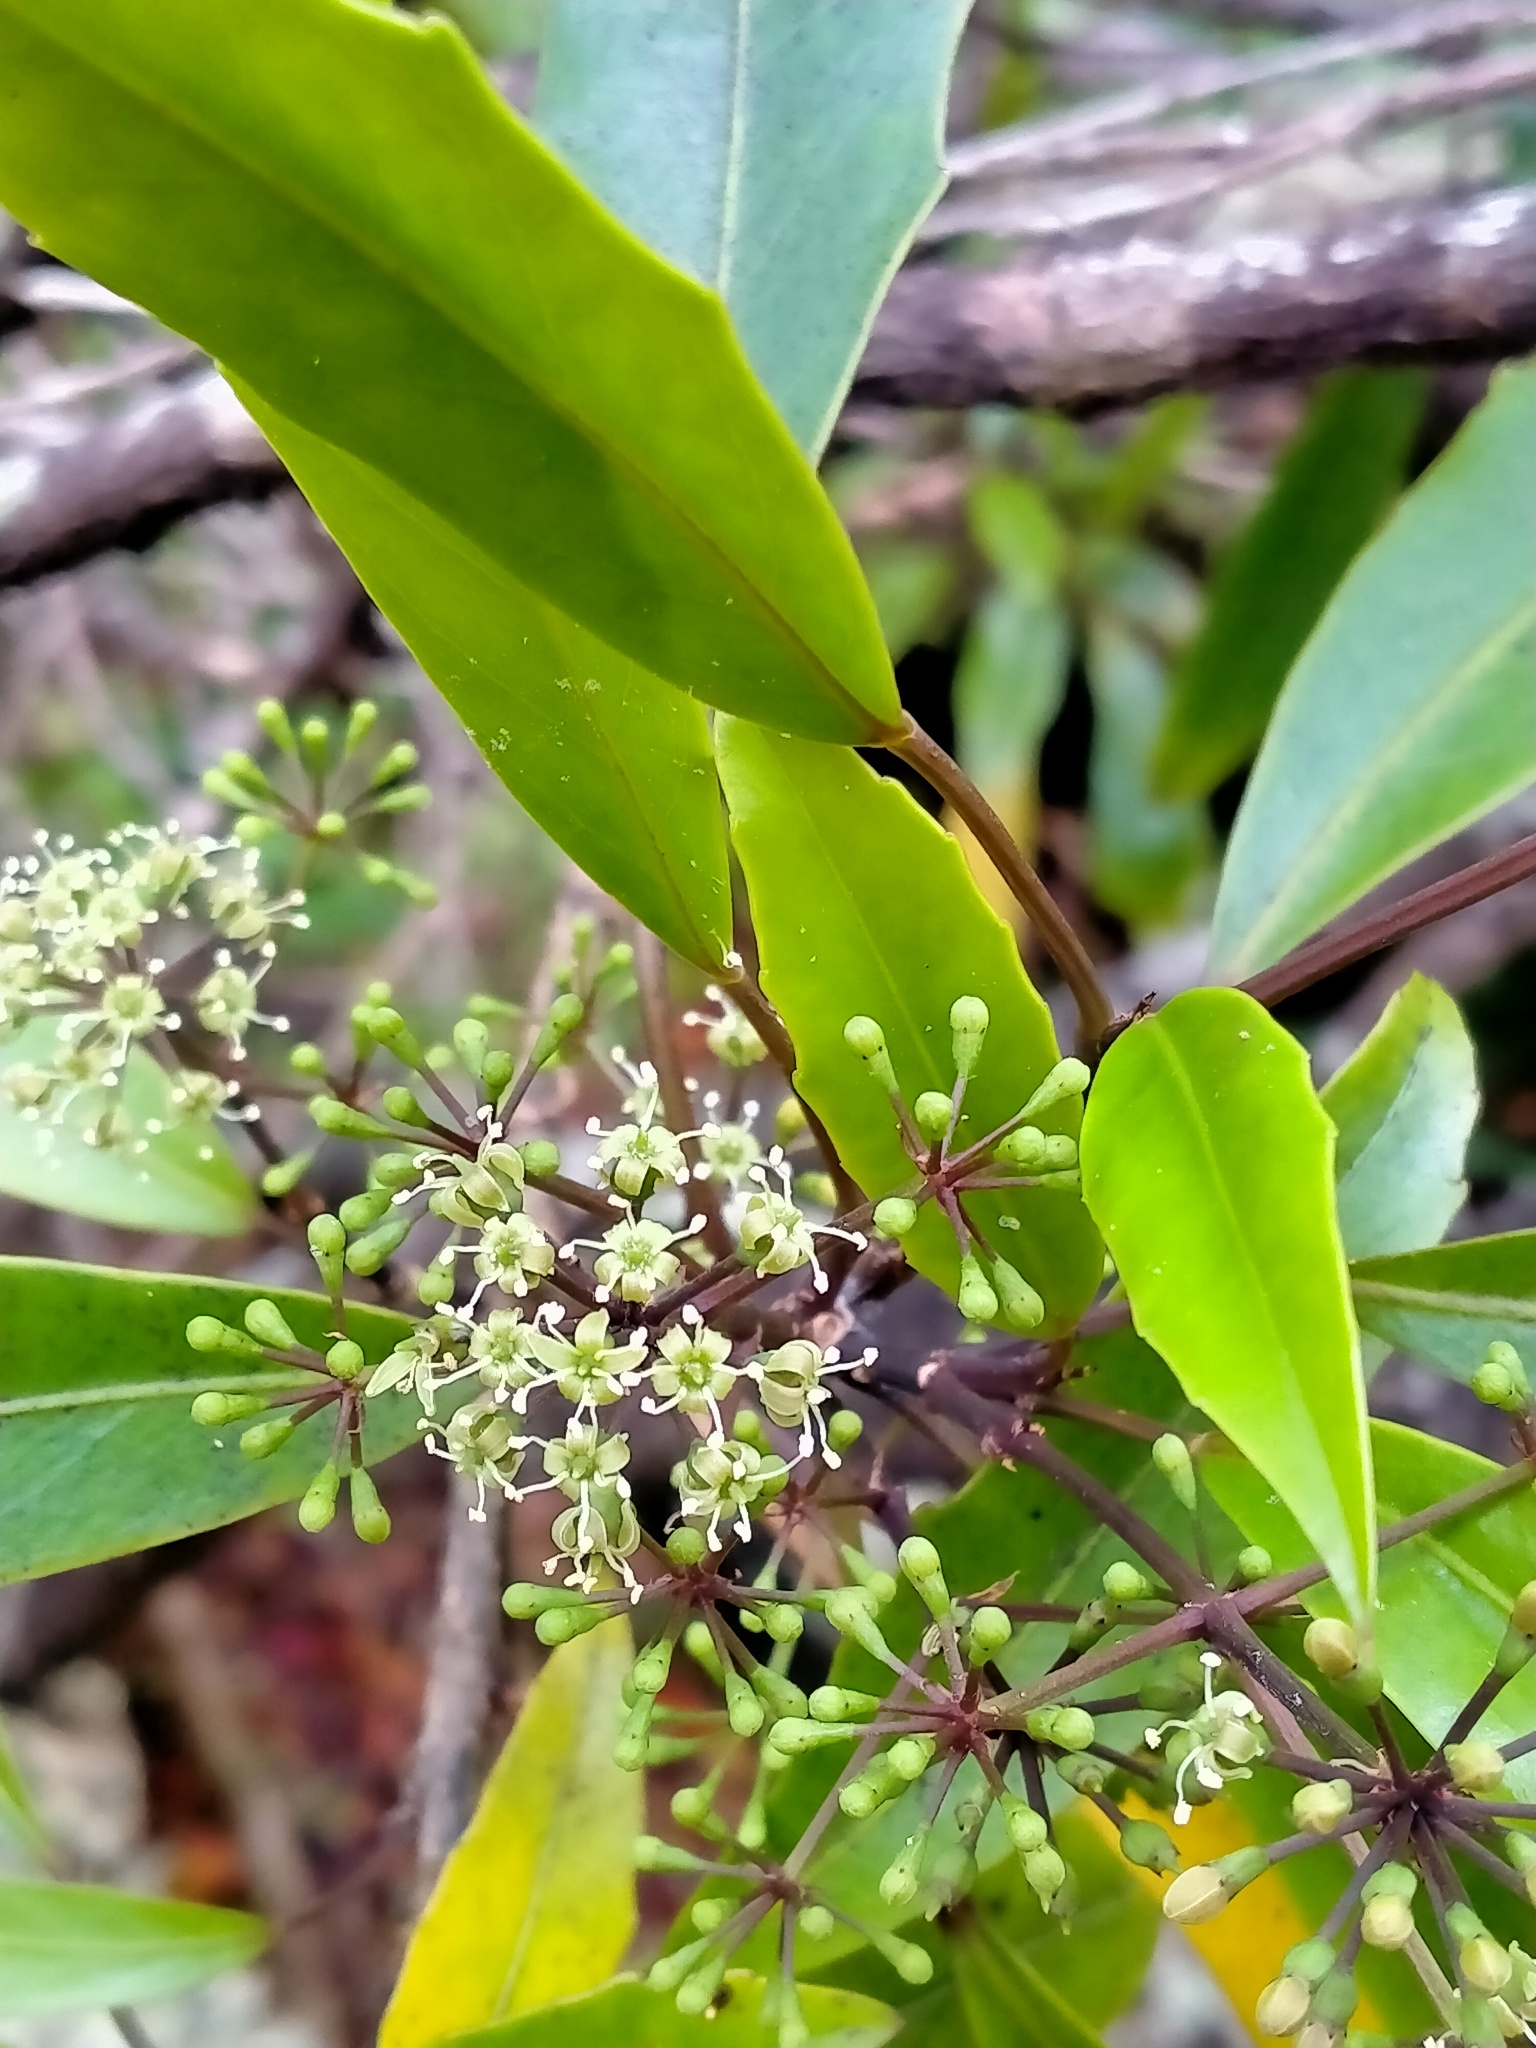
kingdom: Plantae
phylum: Tracheophyta
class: Magnoliopsida
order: Apiales
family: Araliaceae
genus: Raukaua
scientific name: Raukaua simplex
